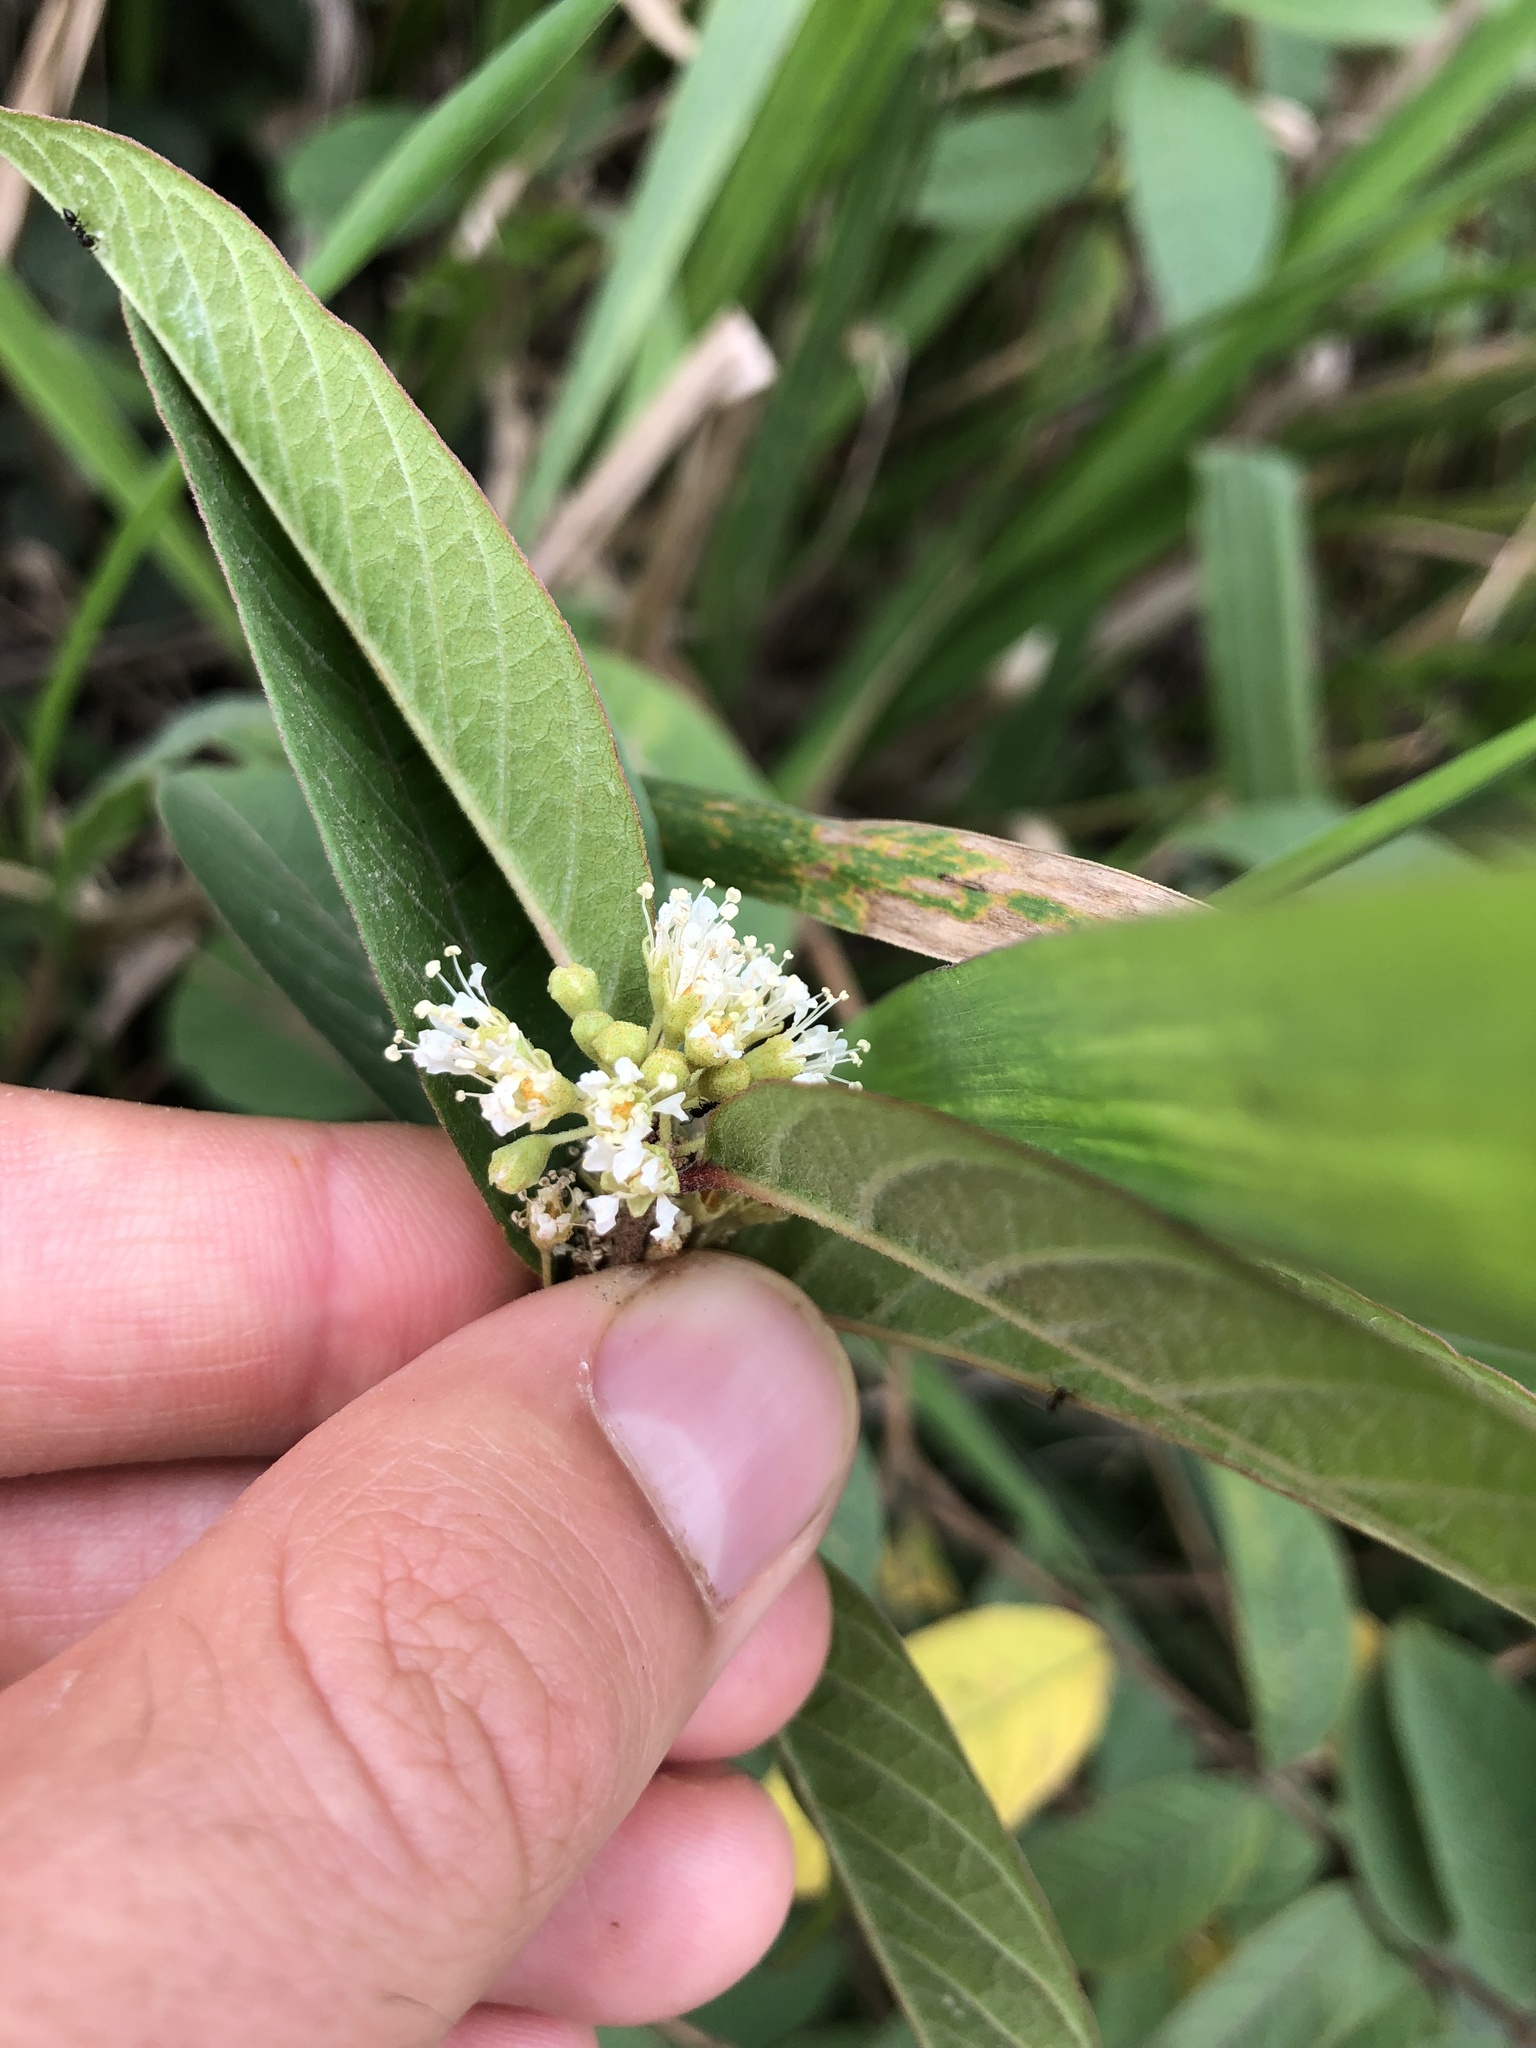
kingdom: Plantae
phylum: Tracheophyta
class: Magnoliopsida
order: Myrtales
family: Lythraceae
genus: Adenaria
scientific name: Adenaria floribunda
